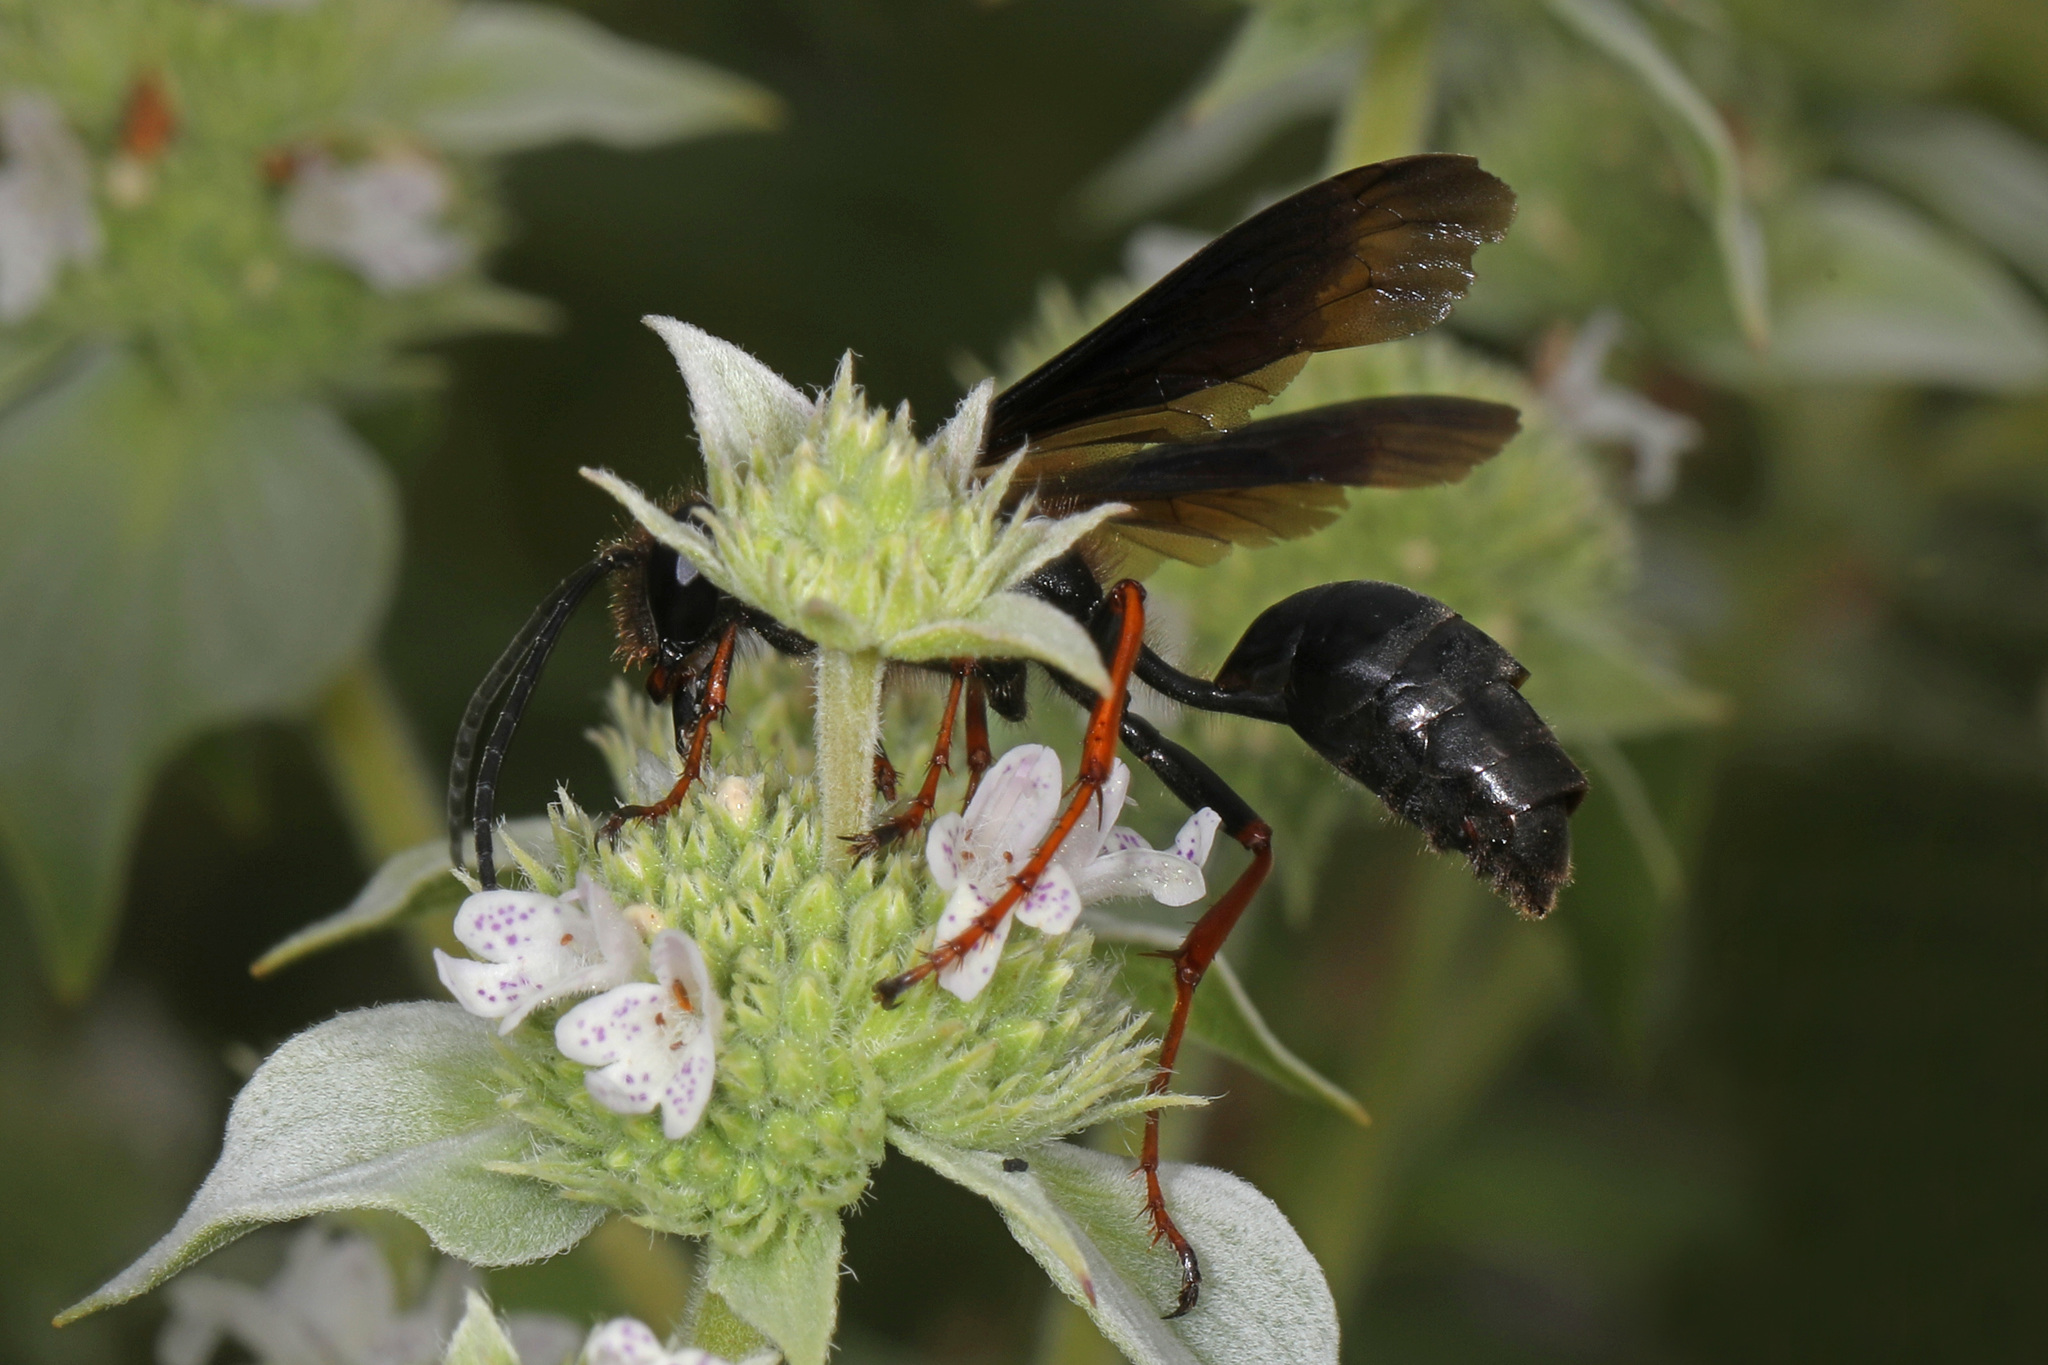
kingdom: Animalia
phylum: Arthropoda
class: Insecta
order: Hymenoptera
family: Sphecidae
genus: Isodontia
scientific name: Isodontia auripes
